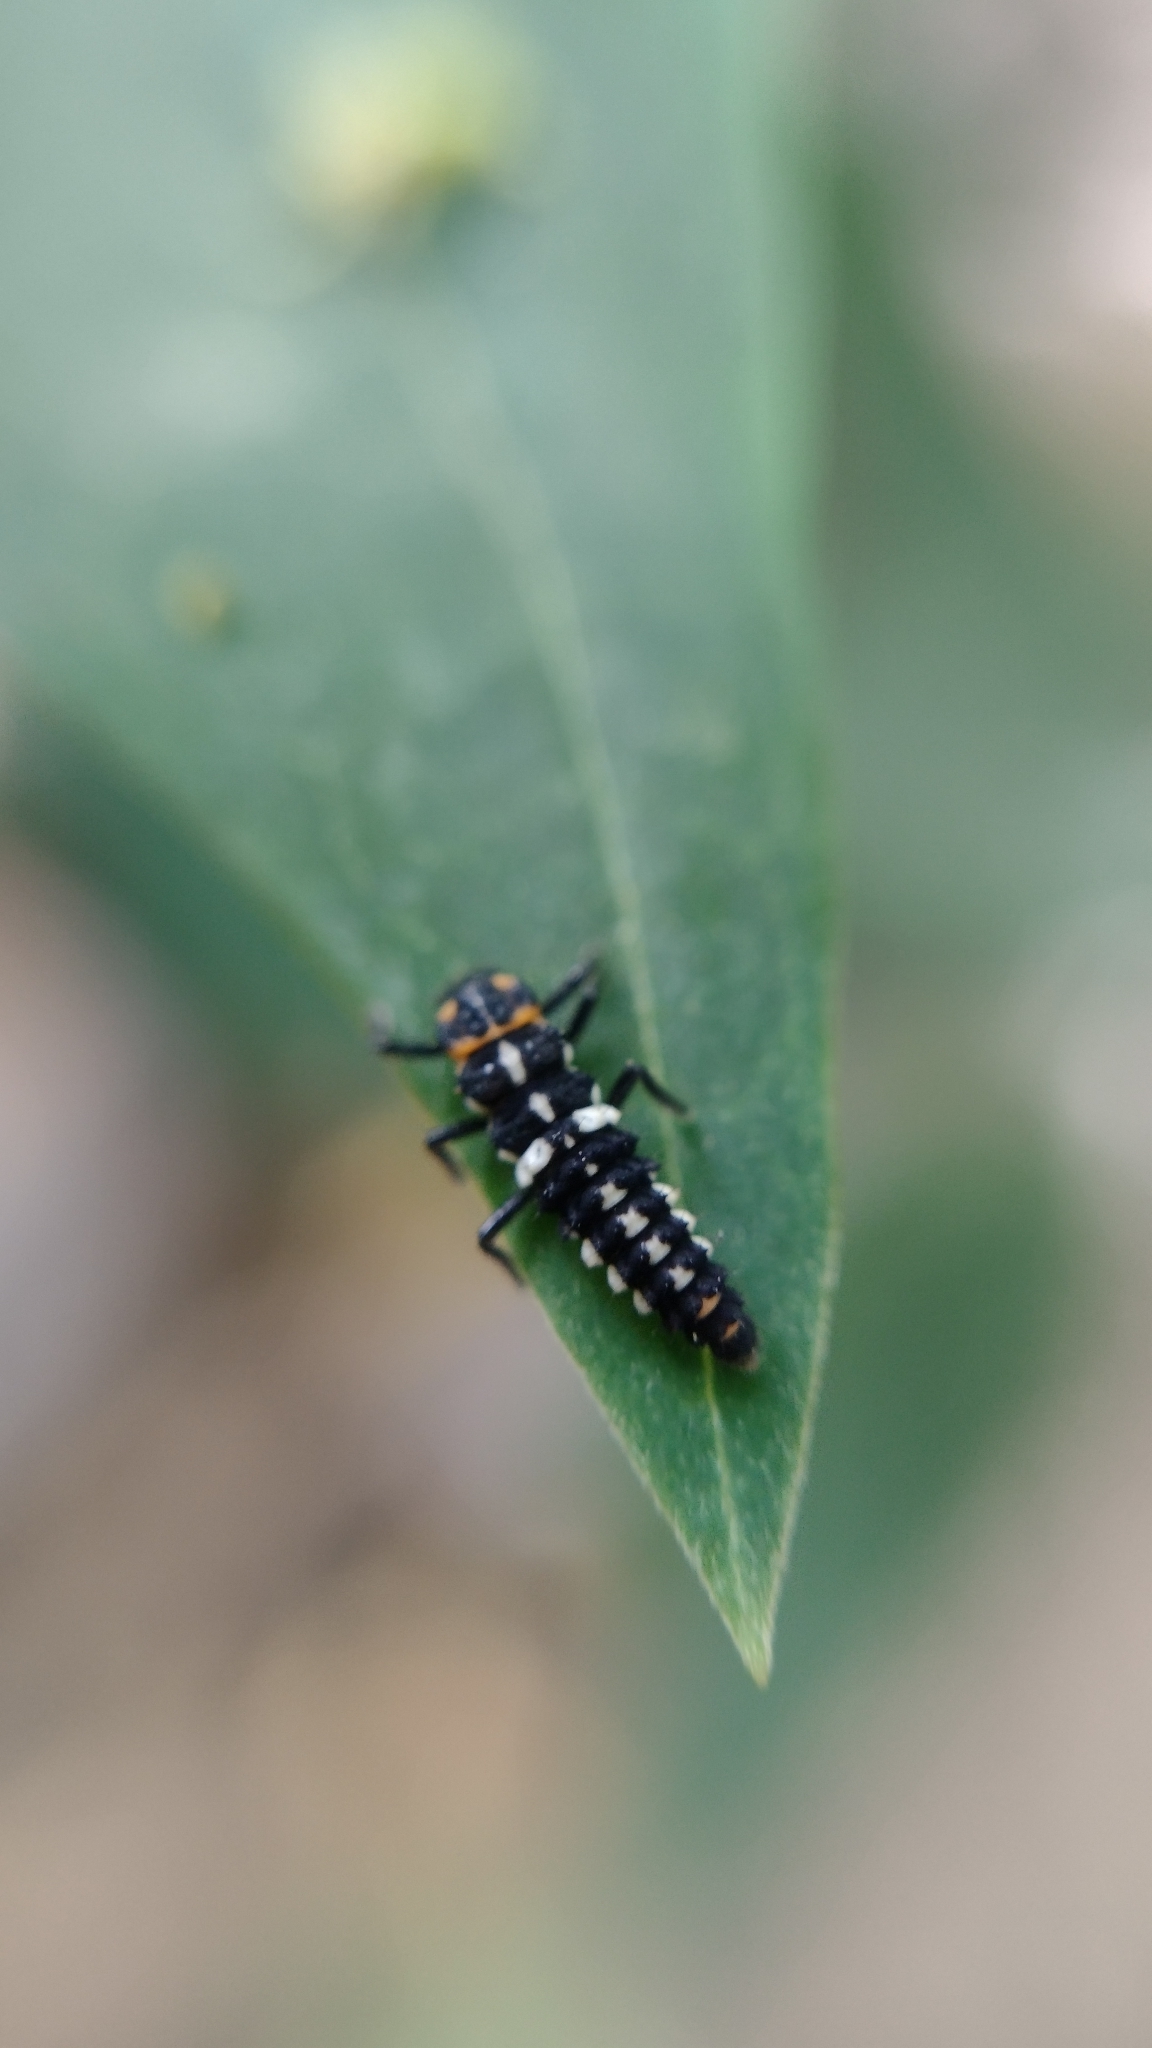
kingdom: Animalia
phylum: Arthropoda
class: Insecta
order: Coleoptera
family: Coccinellidae
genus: Eriopis
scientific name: Eriopis connexa
